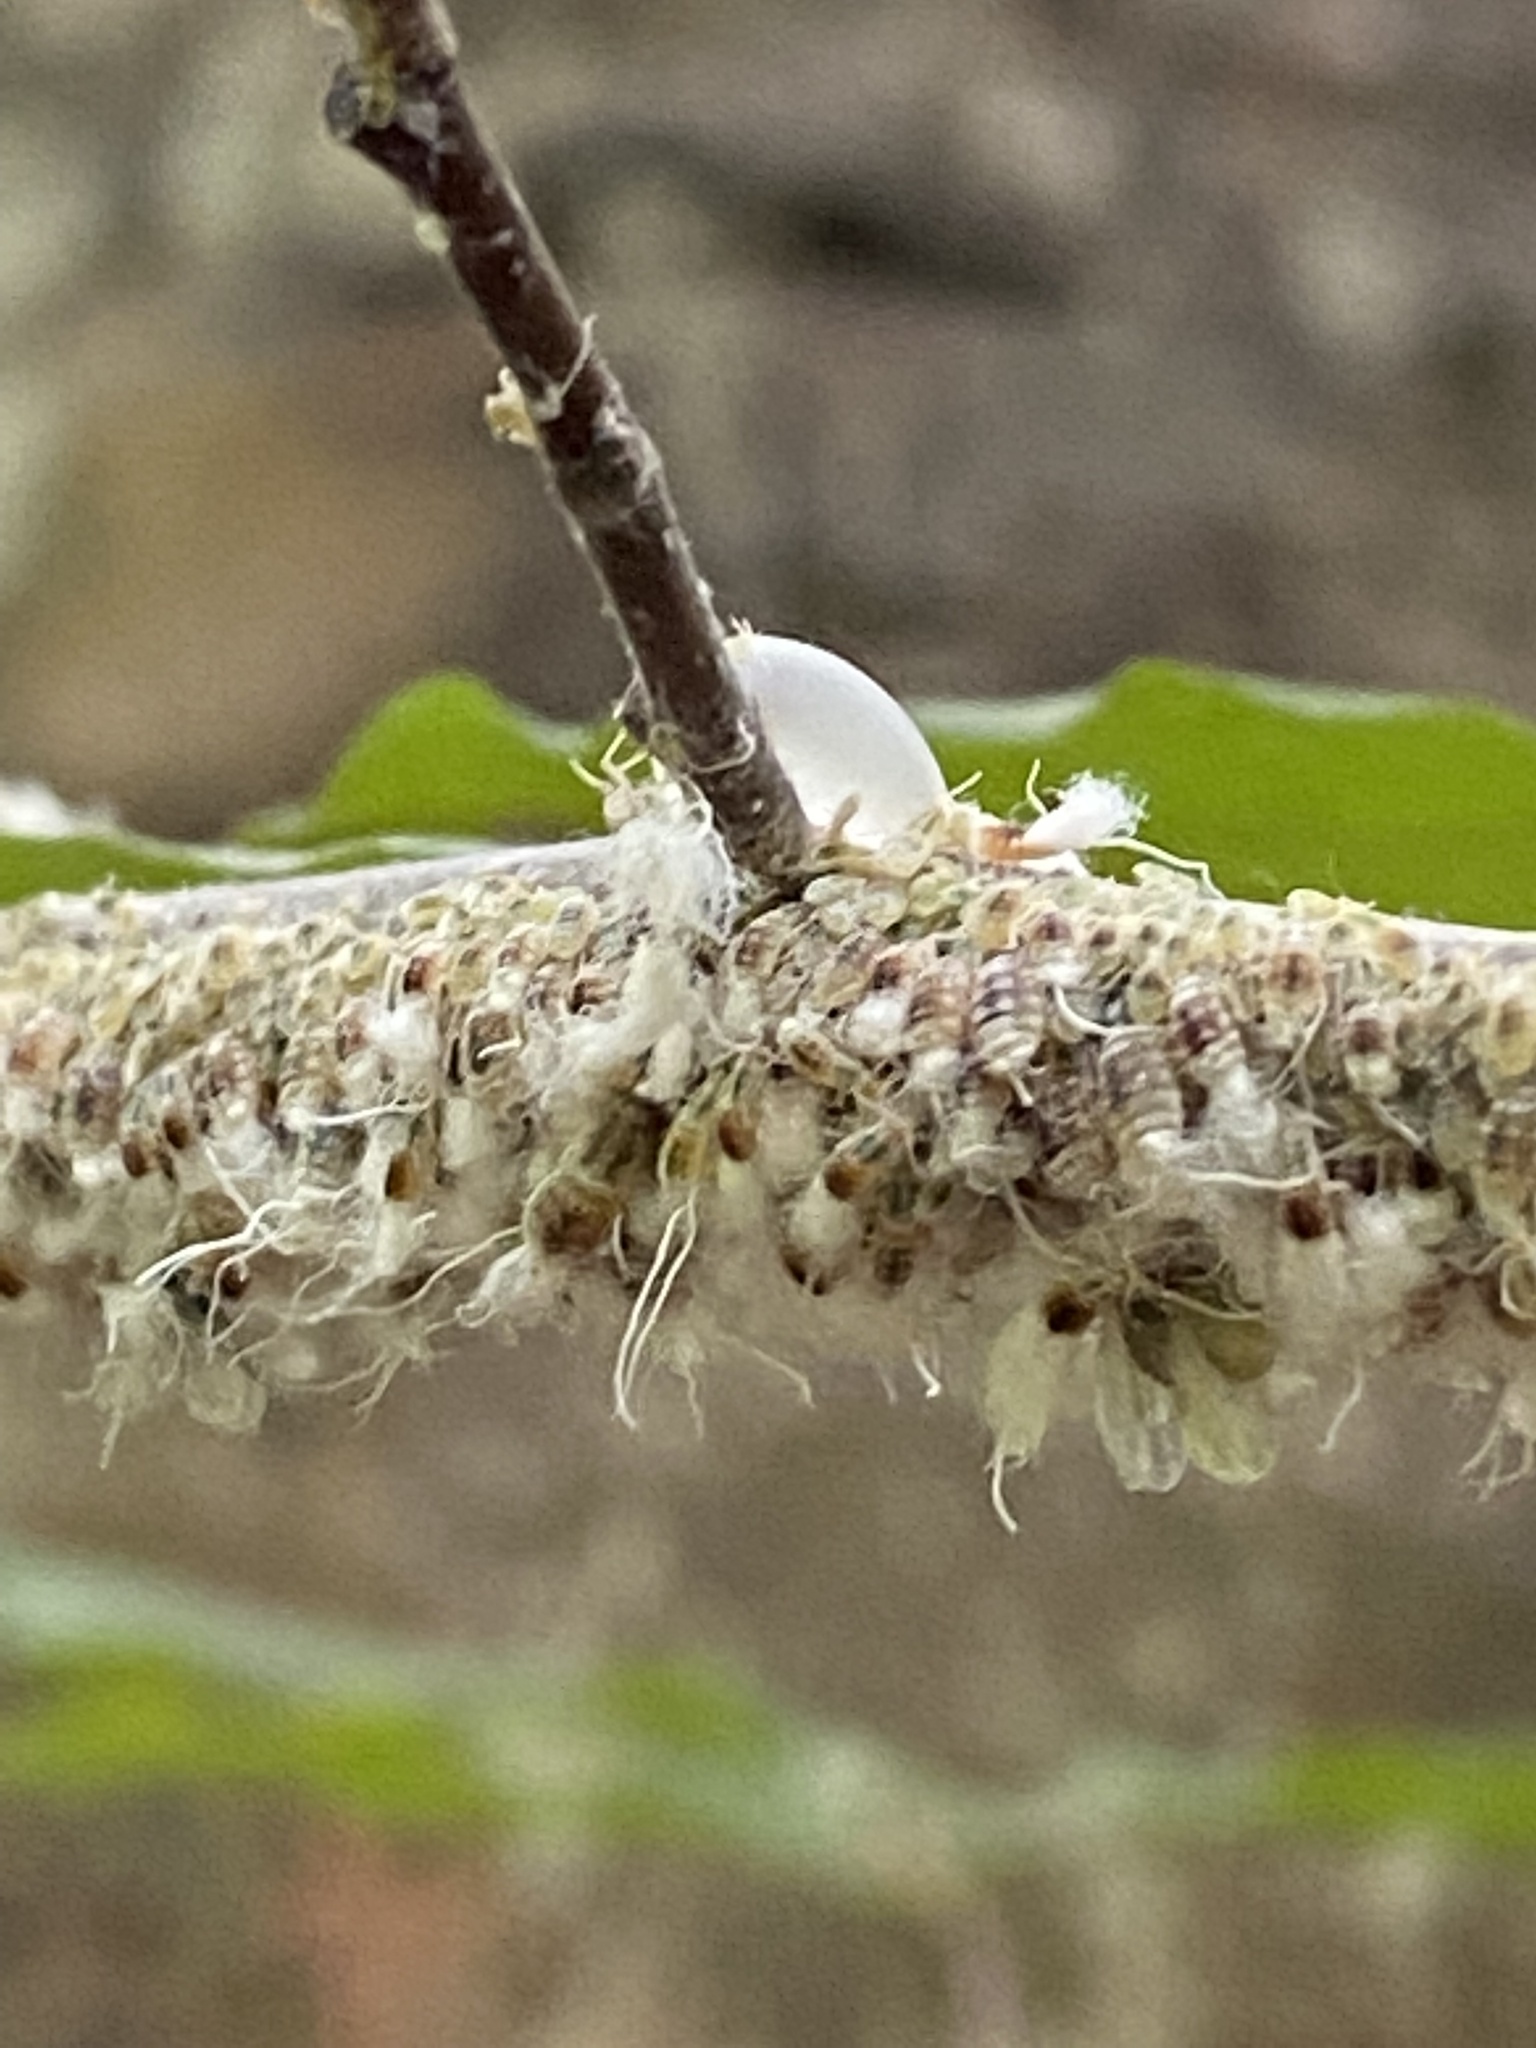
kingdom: Animalia
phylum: Arthropoda
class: Insecta
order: Hemiptera
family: Aphididae
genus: Grylloprociphilus
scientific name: Grylloprociphilus imbricator
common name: Beech blight aphid
